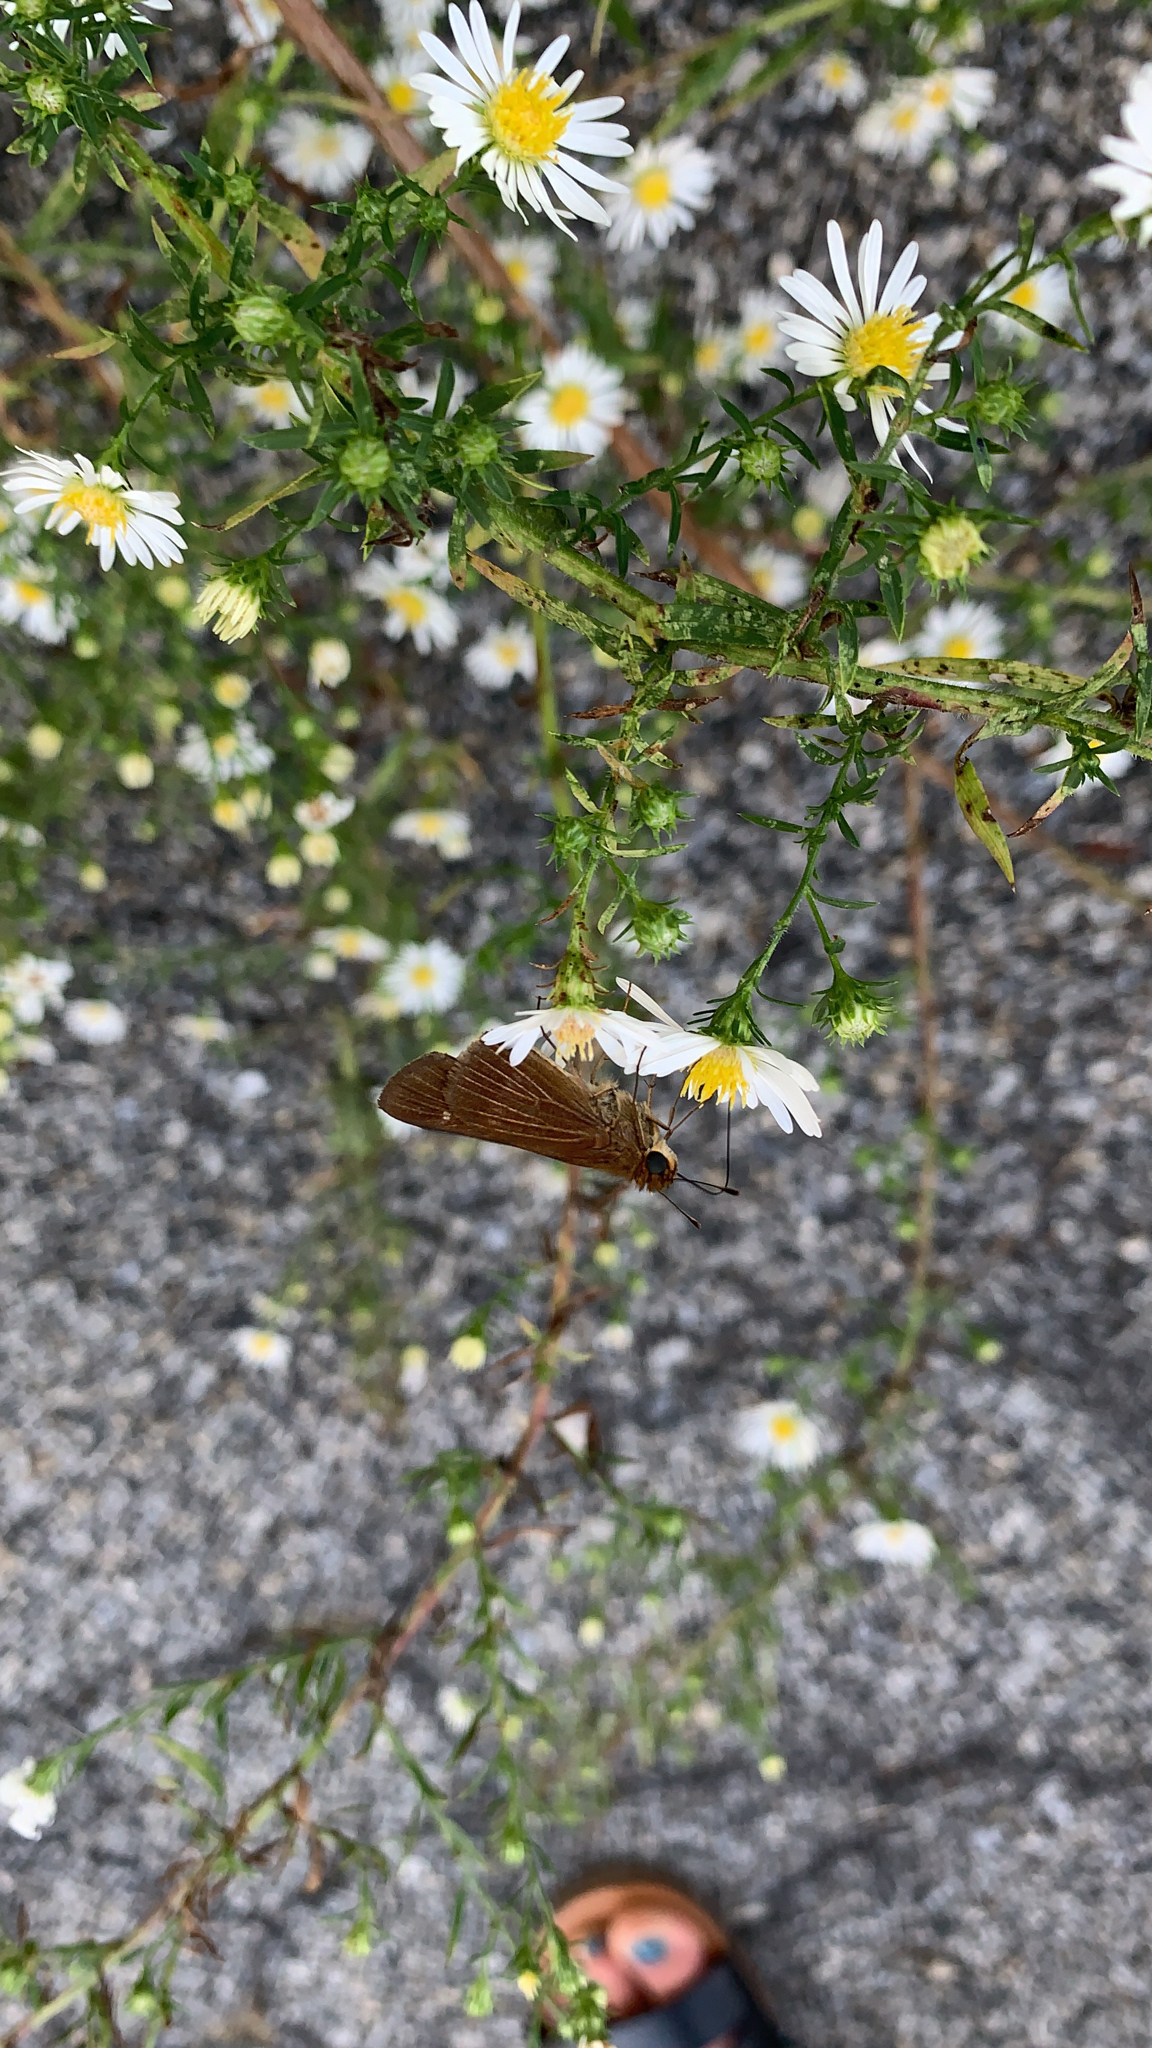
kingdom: Animalia
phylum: Arthropoda
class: Insecta
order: Lepidoptera
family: Hesperiidae
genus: Panoquina
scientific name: Panoquina ocola
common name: Ocola skipper
